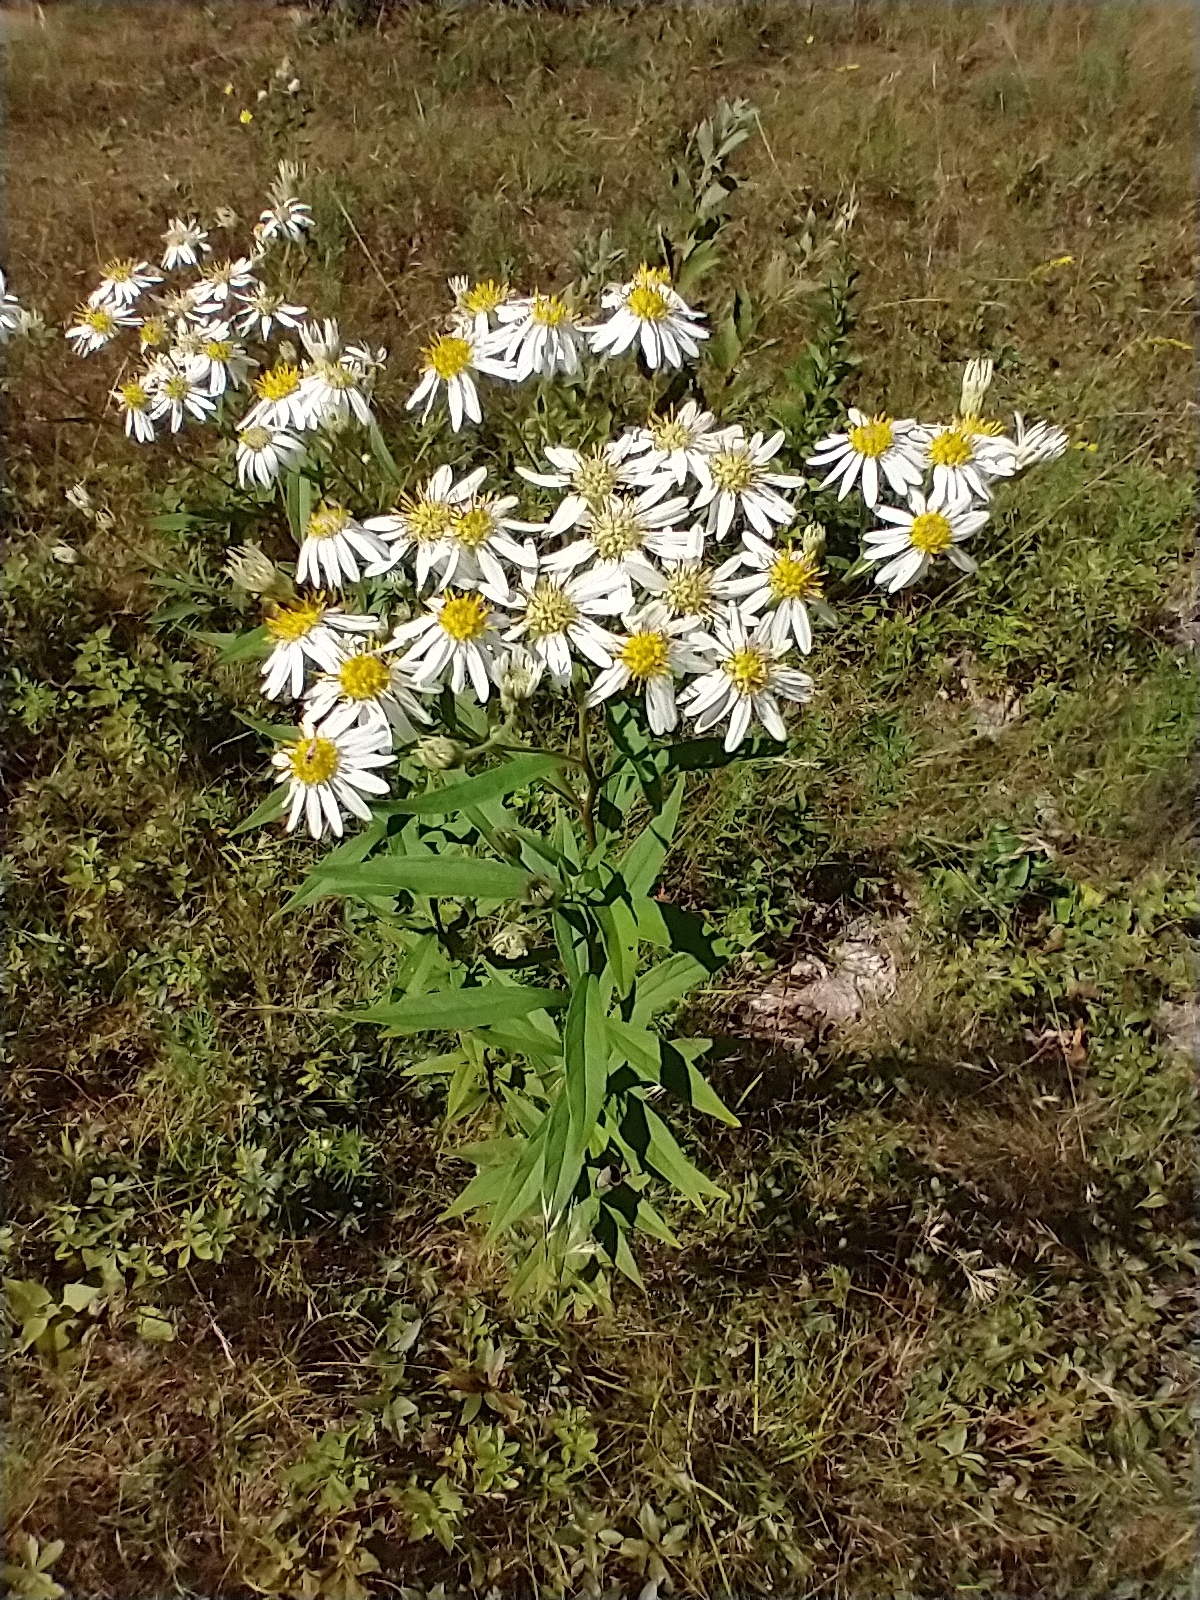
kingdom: Plantae
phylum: Tracheophyta
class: Magnoliopsida
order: Asterales
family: Asteraceae
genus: Doellingeria
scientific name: Doellingeria umbellata
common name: Flat-top white aster
